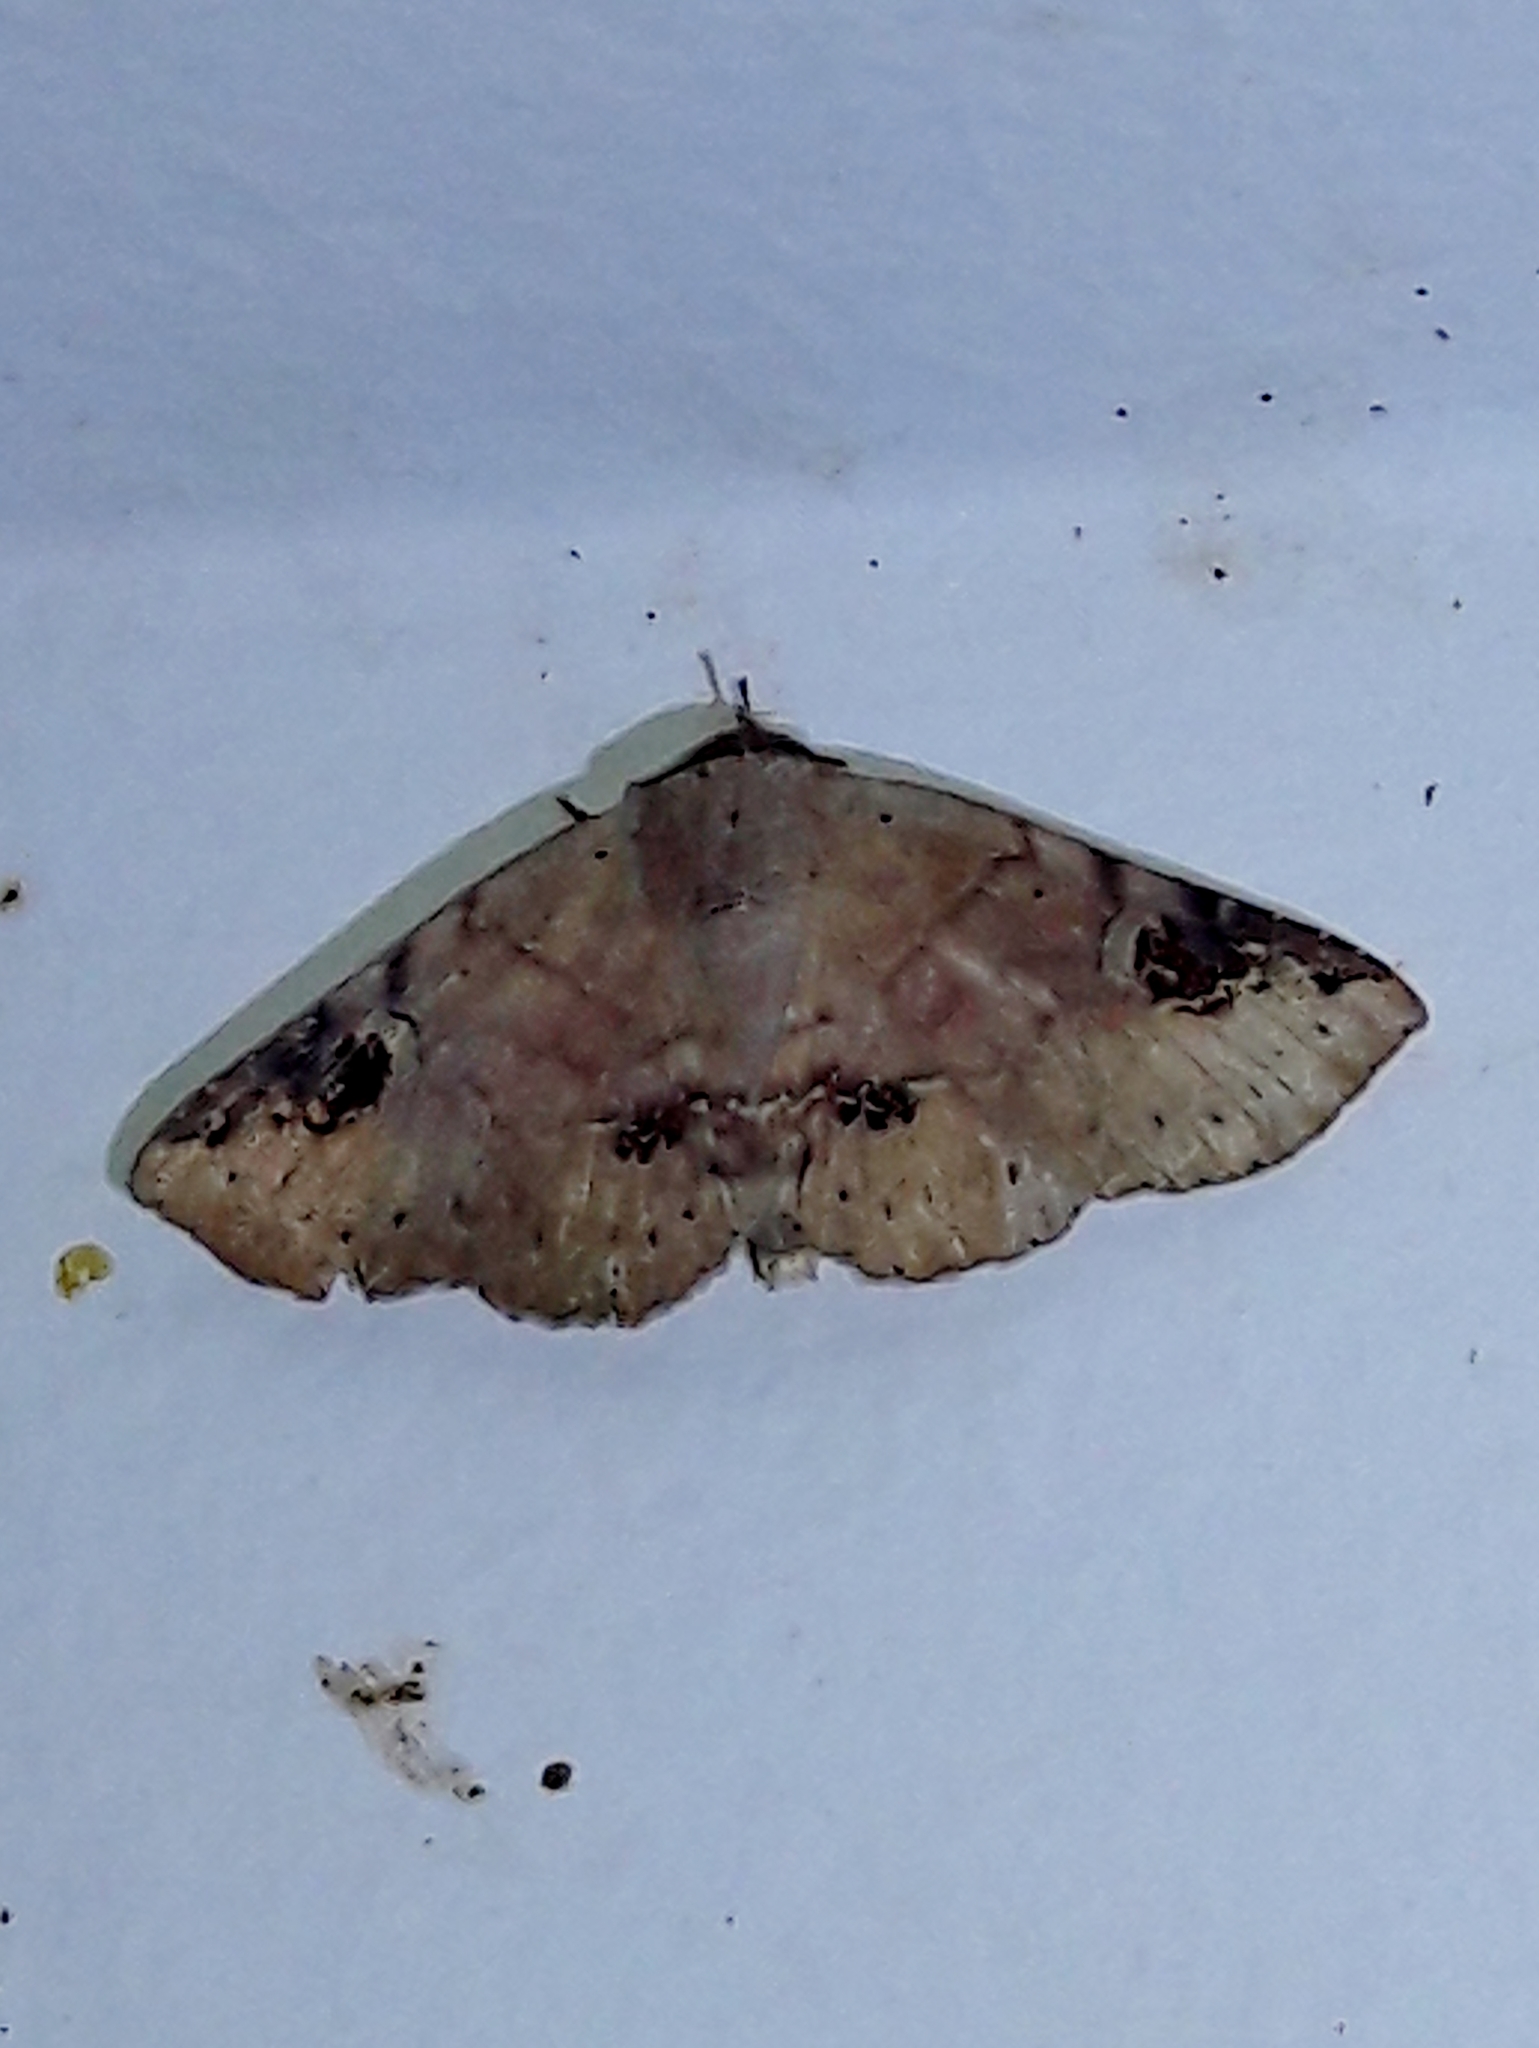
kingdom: Animalia
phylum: Arthropoda
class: Insecta
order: Lepidoptera
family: Erebidae
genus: Massala
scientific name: Massala abdara
